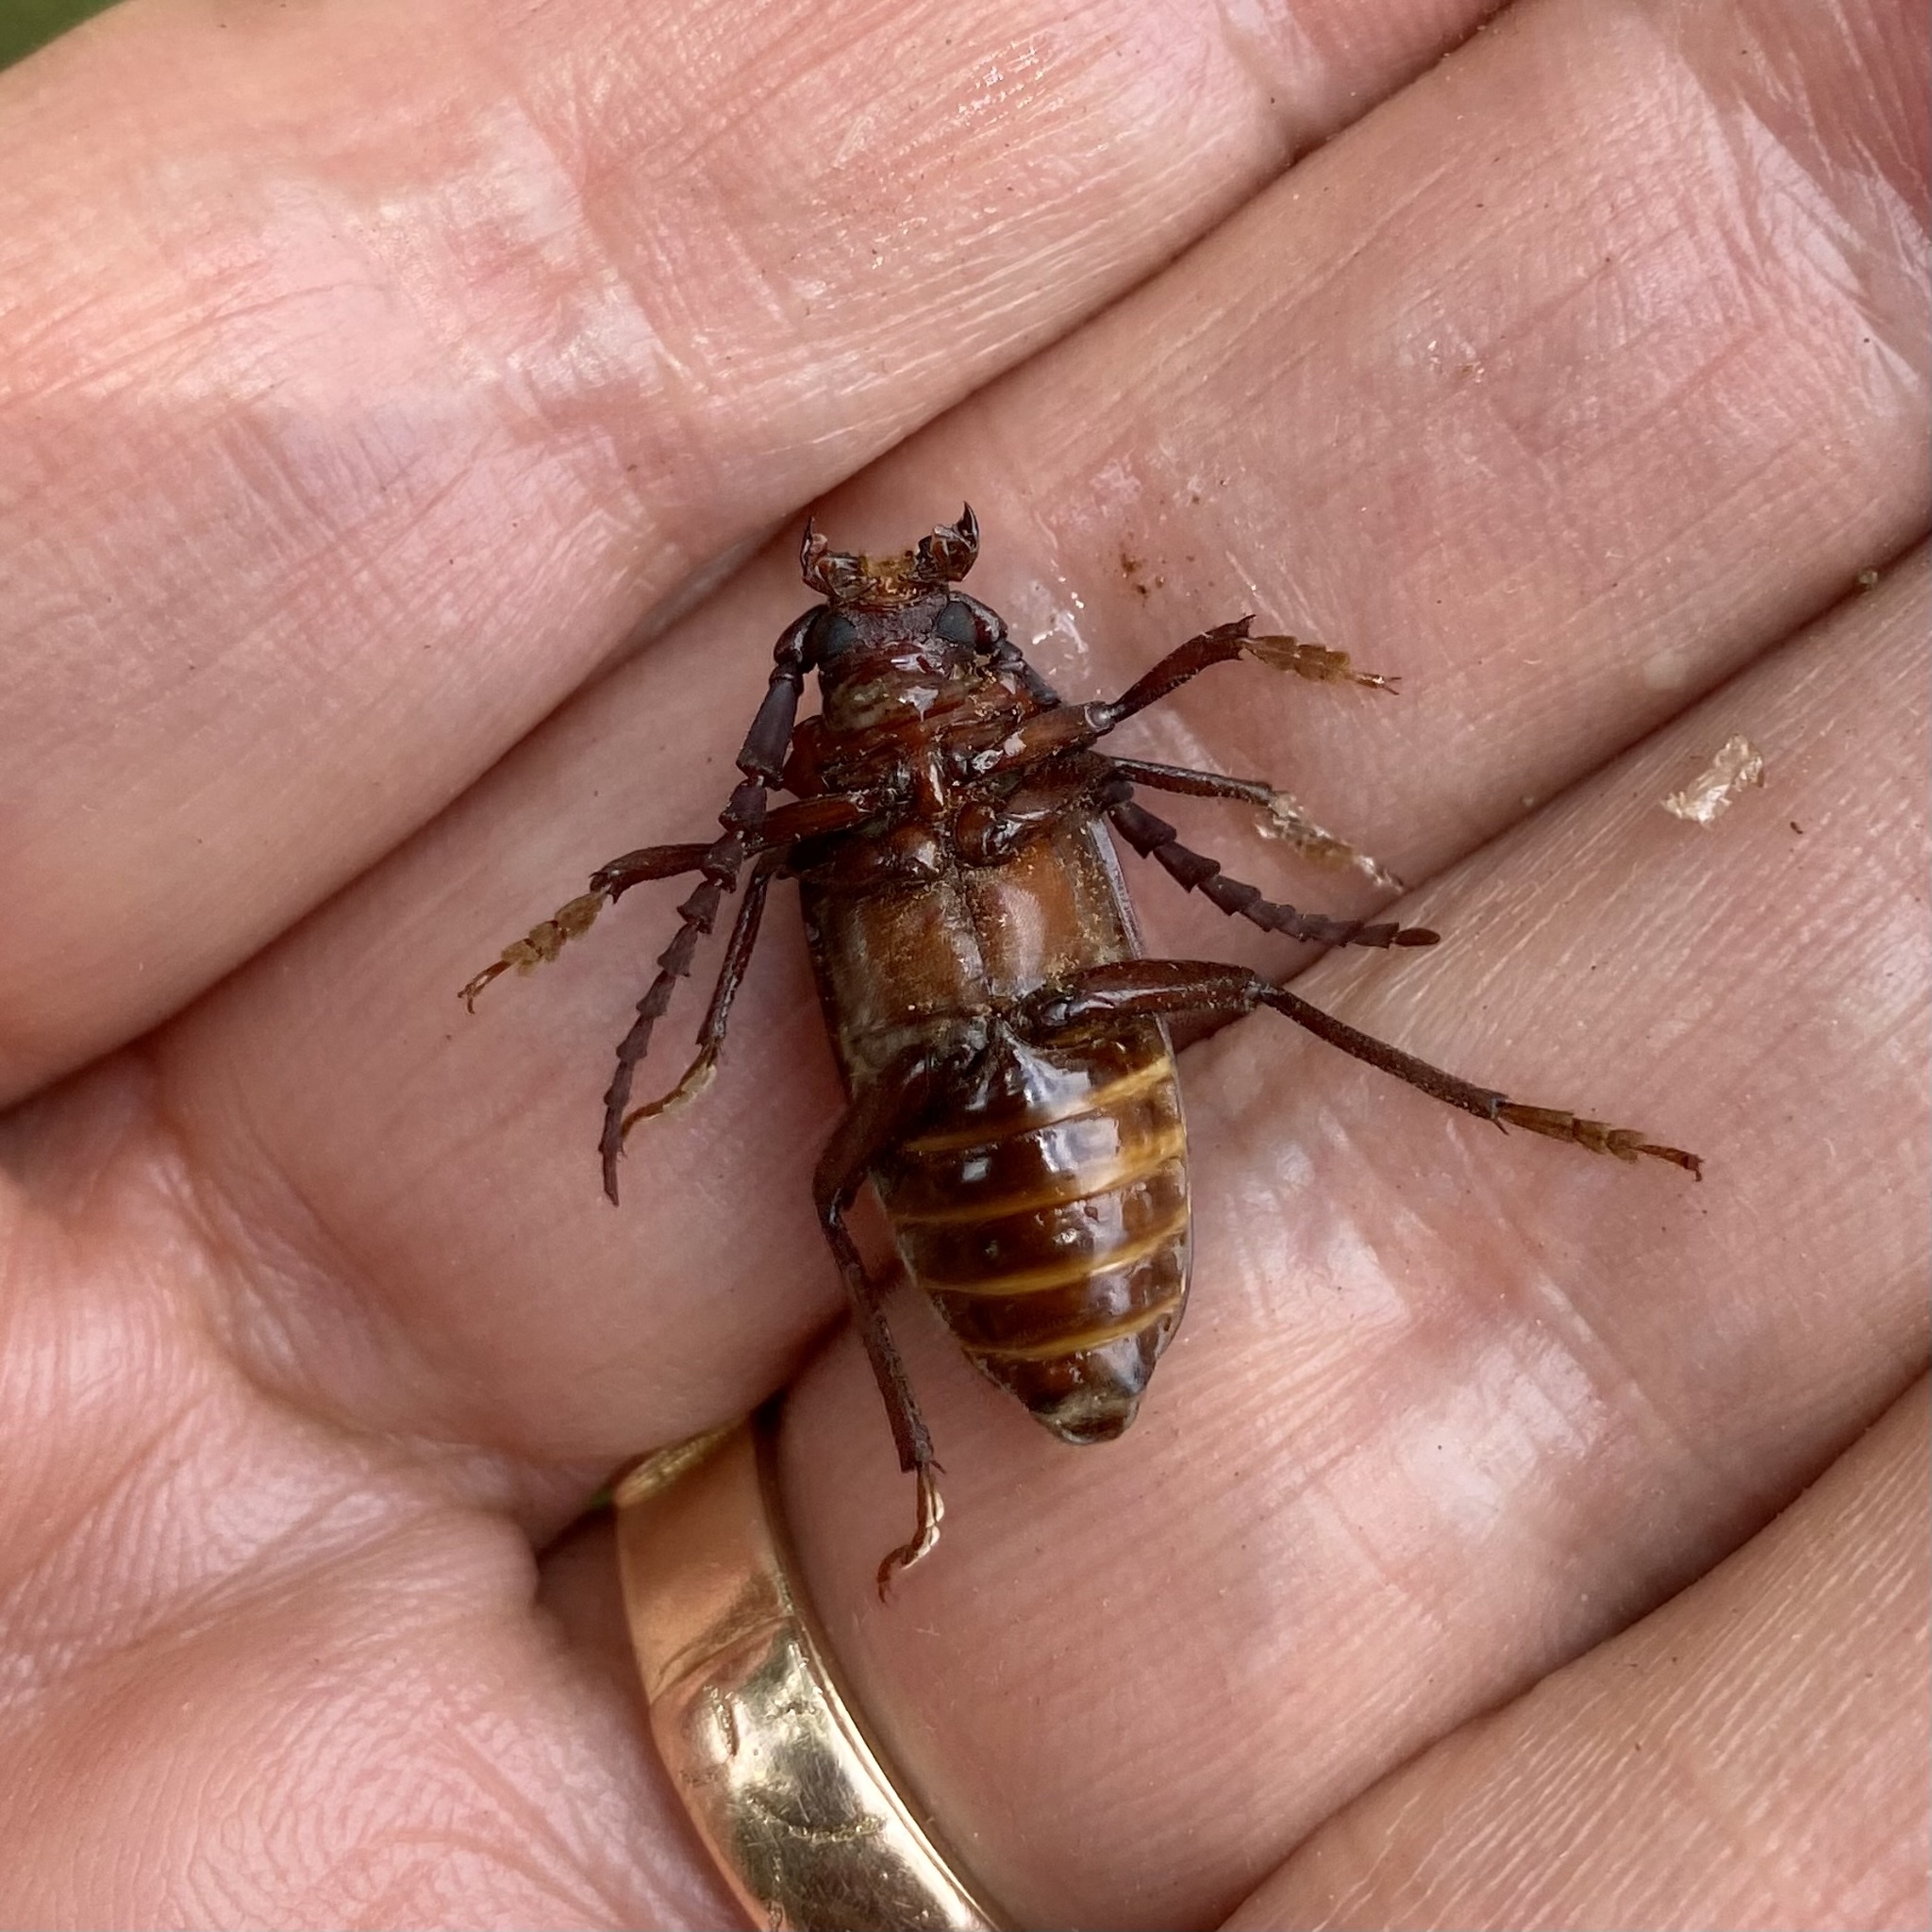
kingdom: Animalia
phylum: Arthropoda
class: Insecta
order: Coleoptera
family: Cerambycidae
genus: Prionus
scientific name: Prionus pocularis
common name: Tooth-necked longhorn beetle
